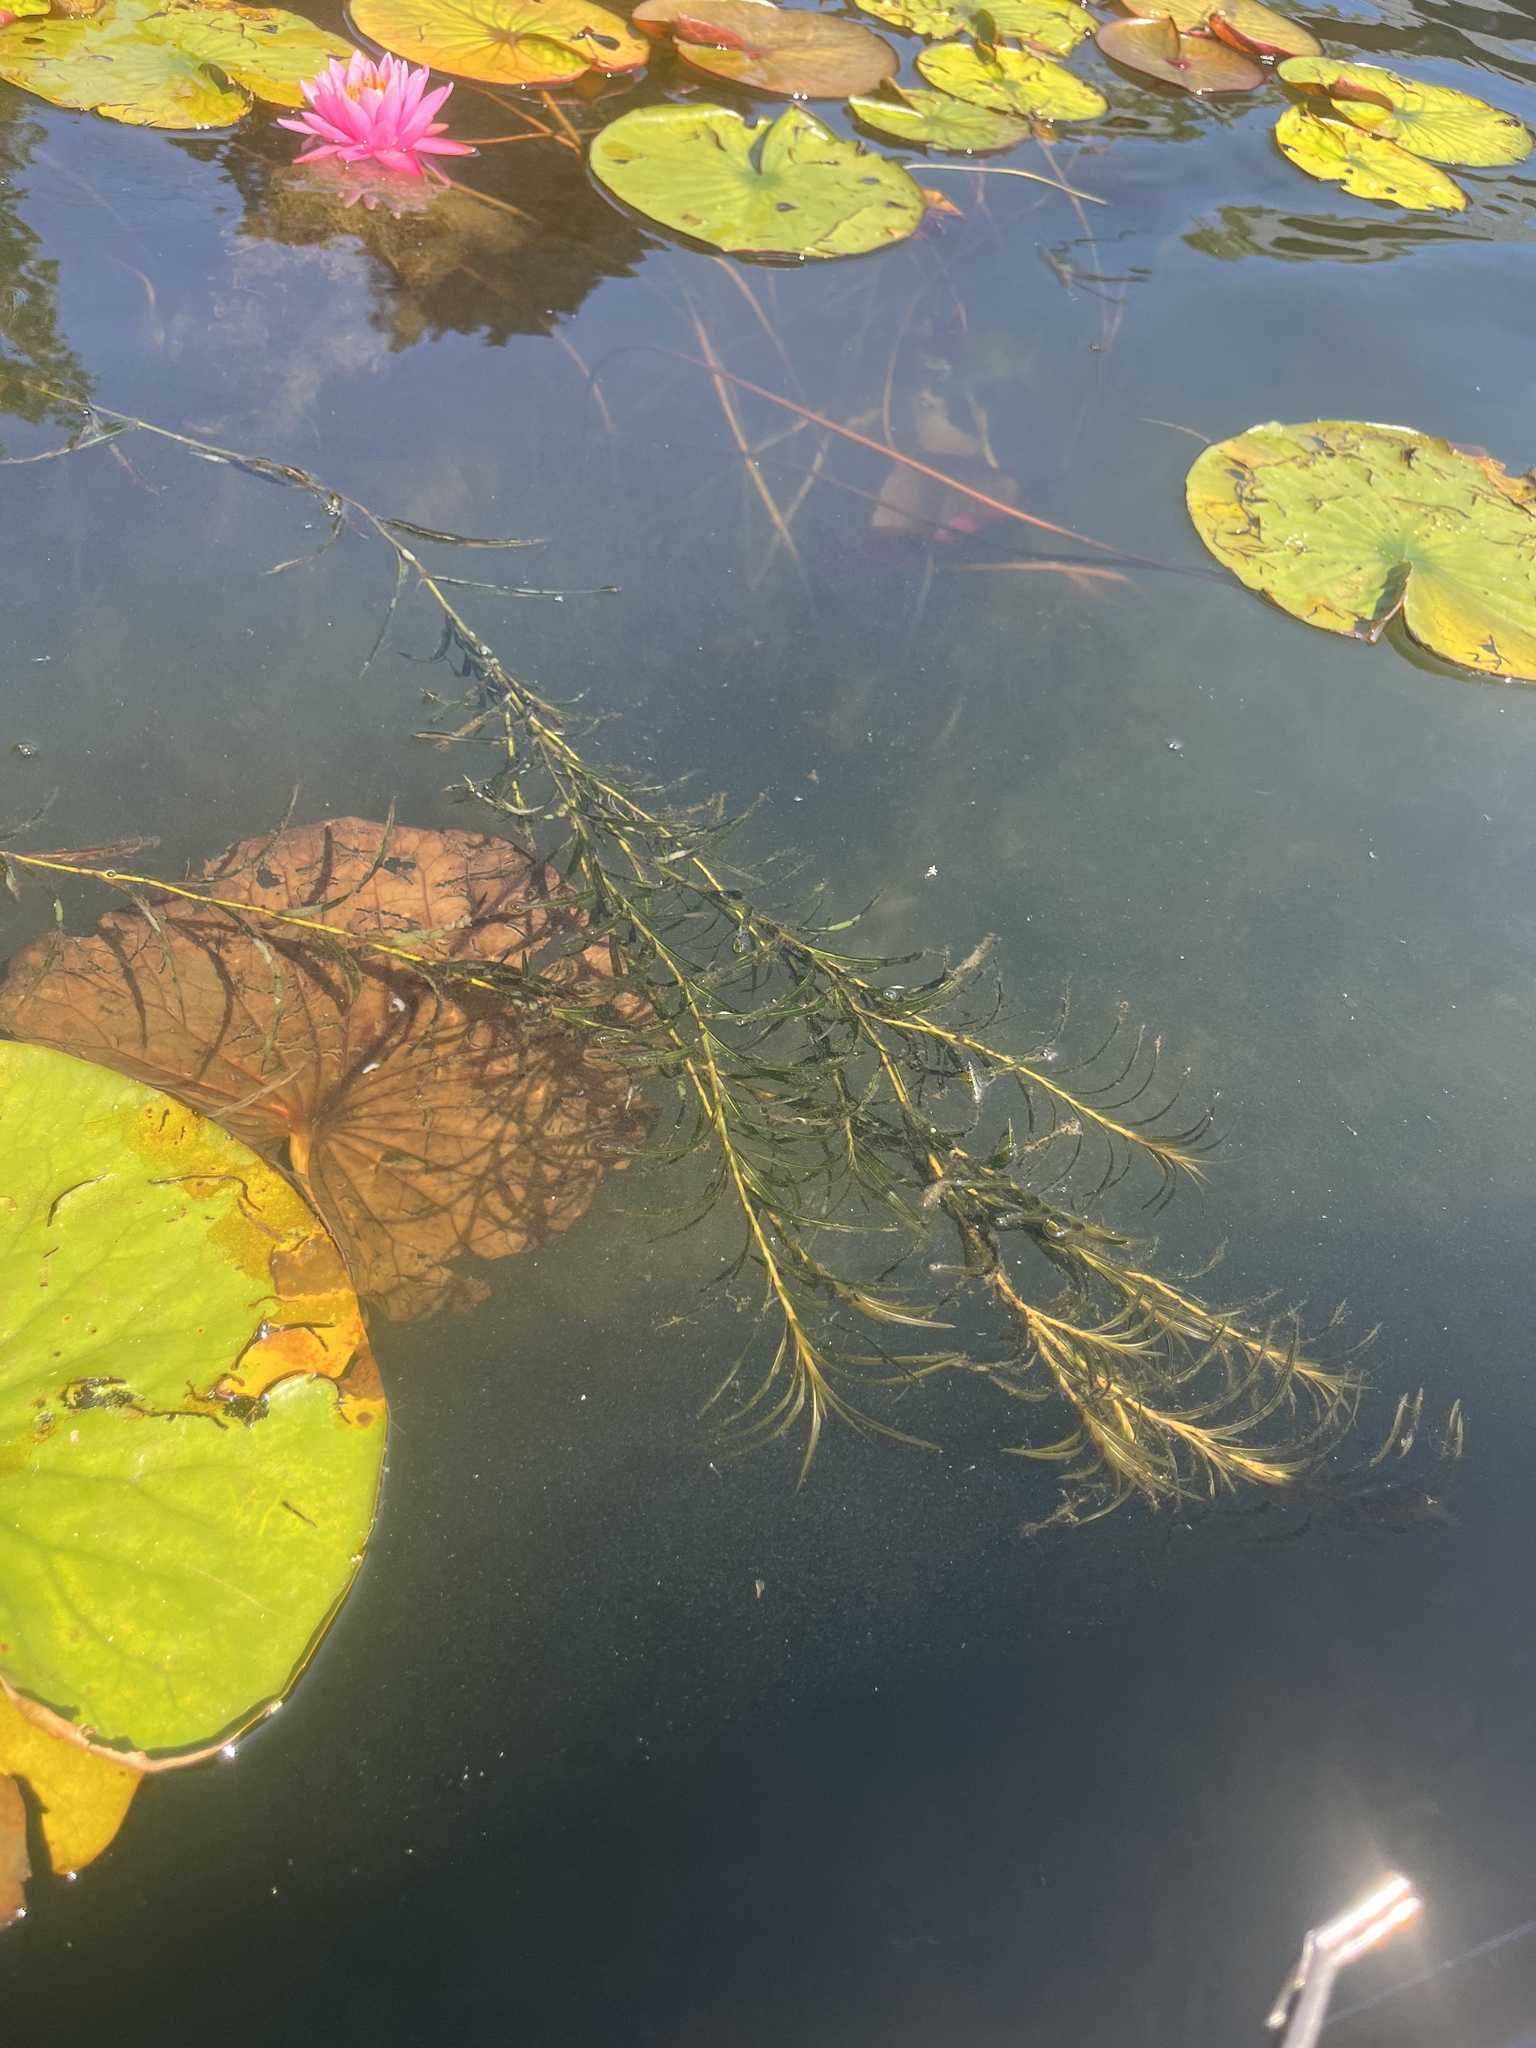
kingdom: Plantae
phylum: Tracheophyta
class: Liliopsida
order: Alismatales
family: Potamogetonaceae
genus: Potamogeton
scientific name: Potamogeton robbinsii
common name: Fern pondweed
